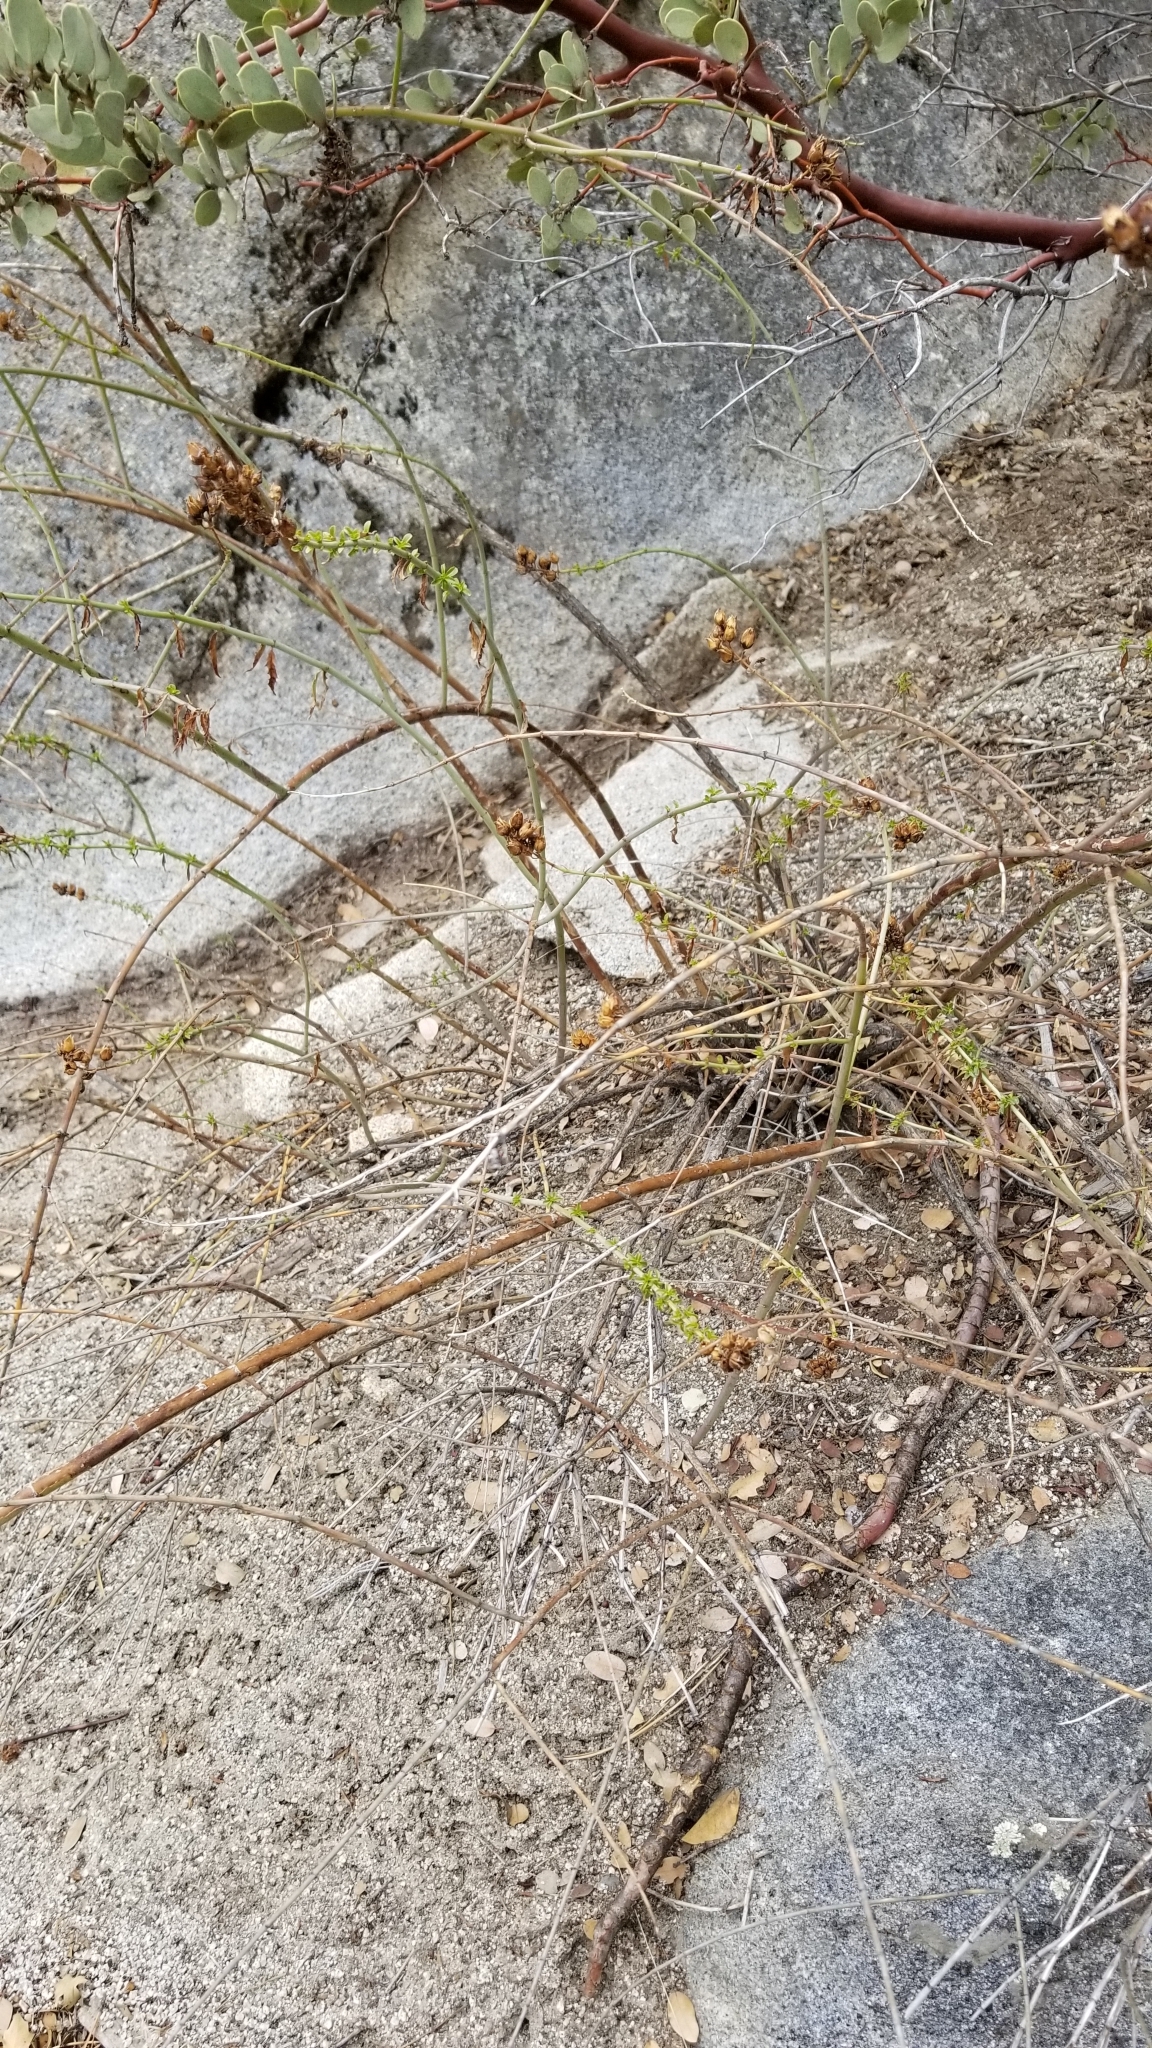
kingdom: Plantae
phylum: Tracheophyta
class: Magnoliopsida
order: Lamiales
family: Plantaginaceae
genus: Keckiella
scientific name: Keckiella ternata
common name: Scarlet keckiella
